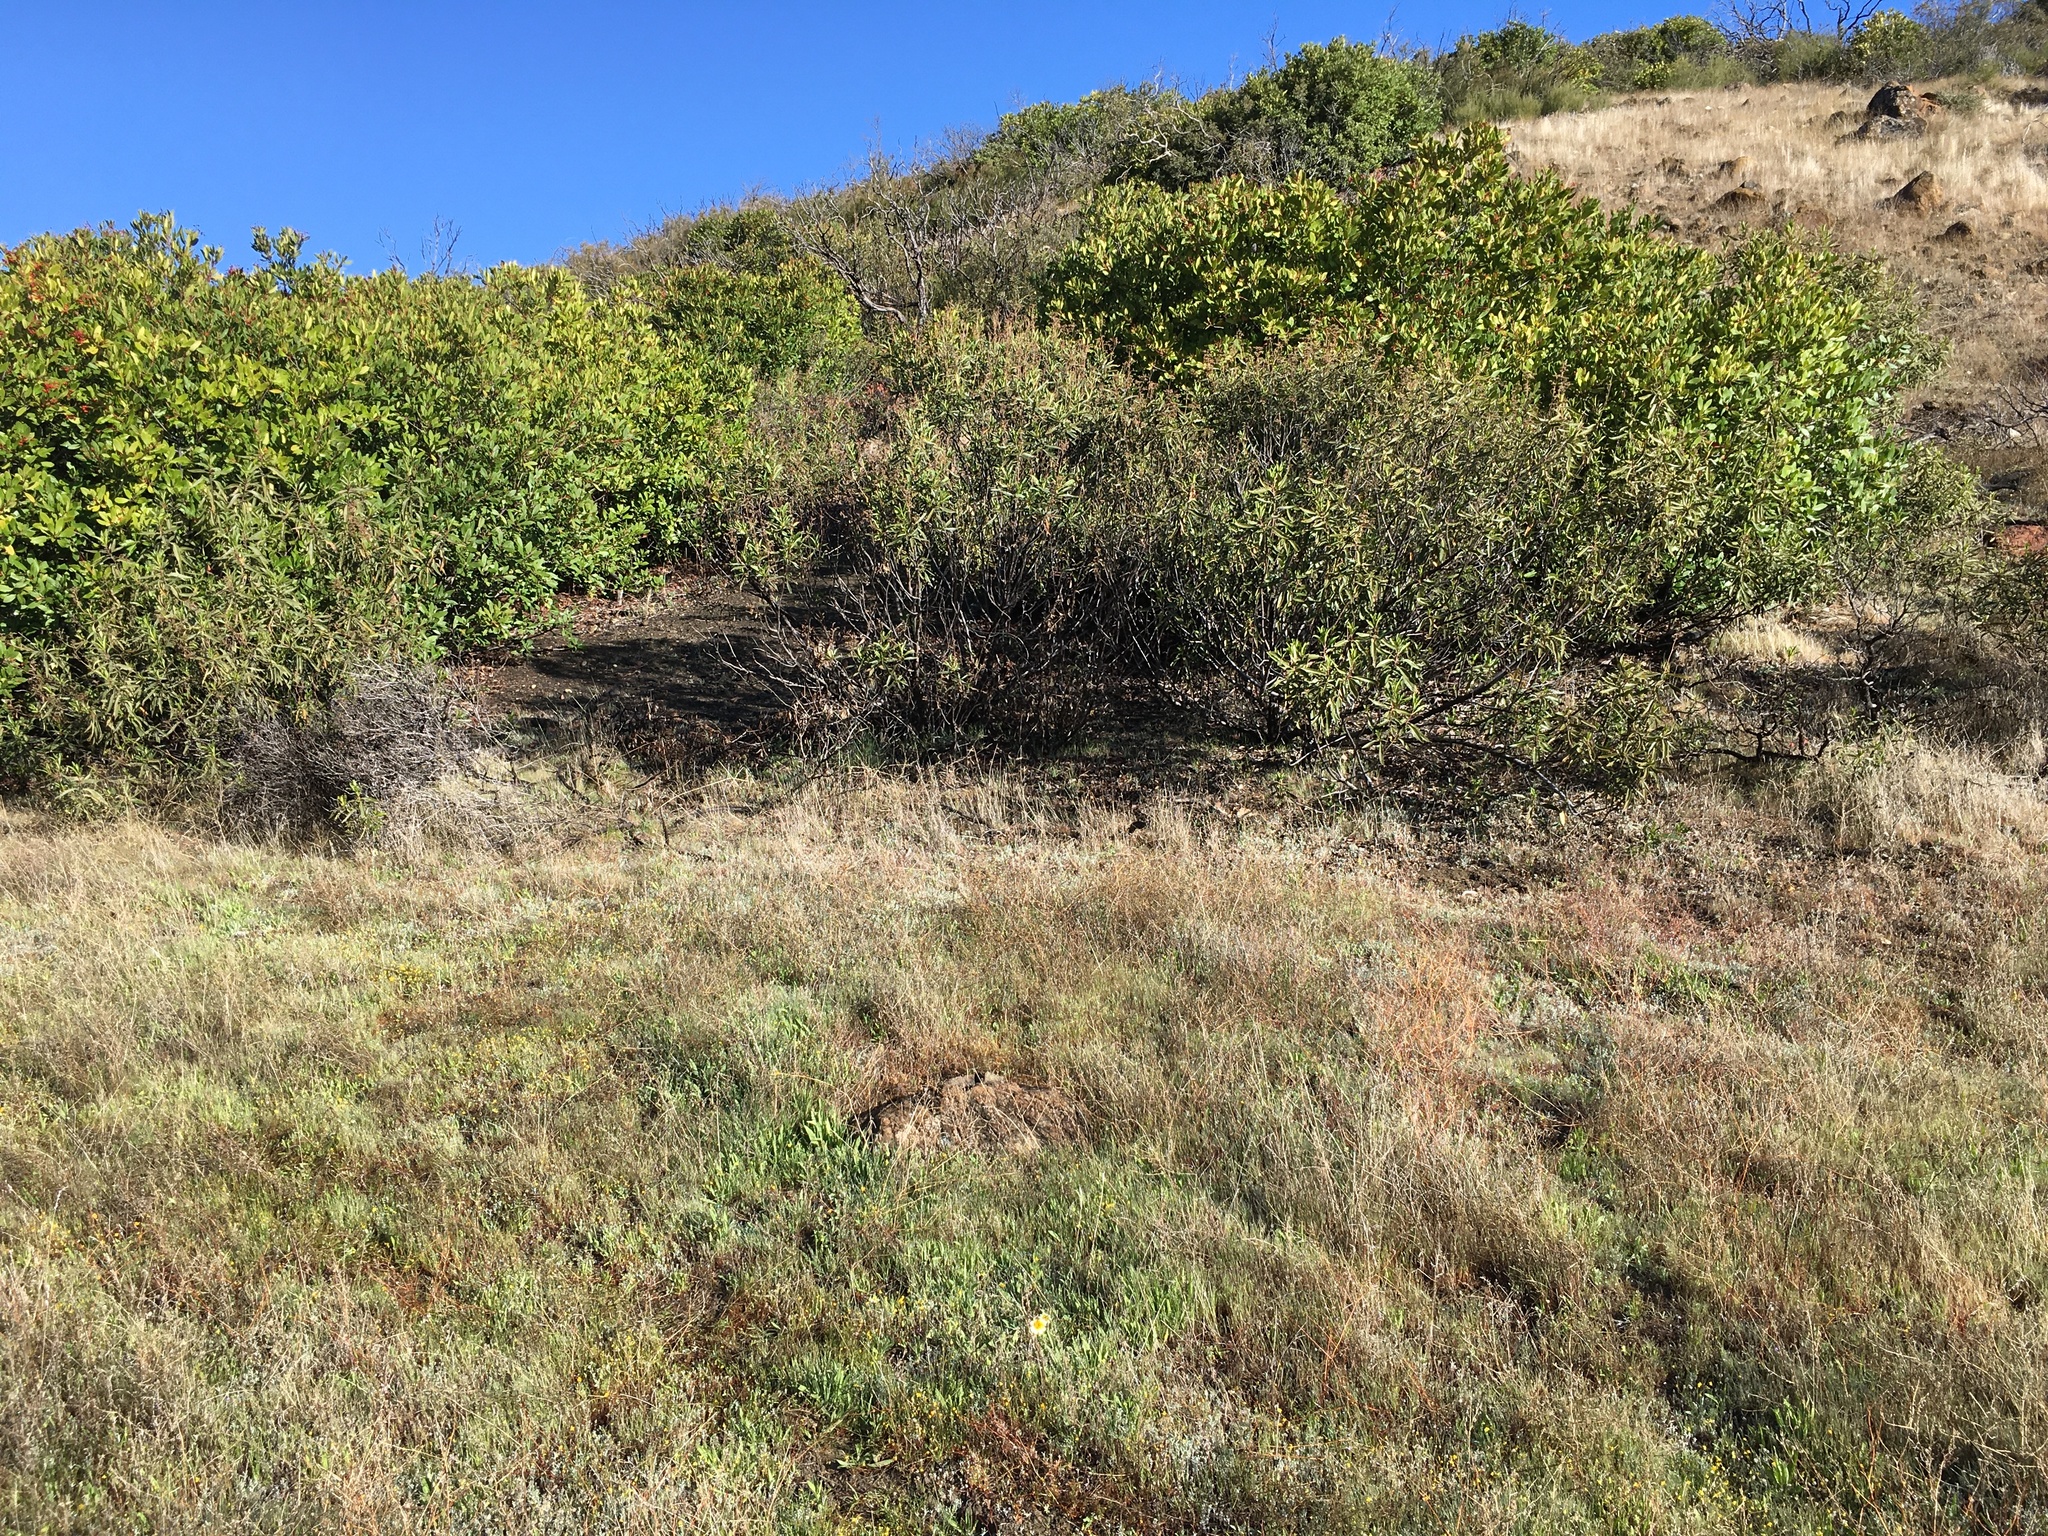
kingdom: Plantae
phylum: Tracheophyta
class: Magnoliopsida
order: Asterales
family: Asteraceae
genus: Layia
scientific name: Layia gaillardioides
